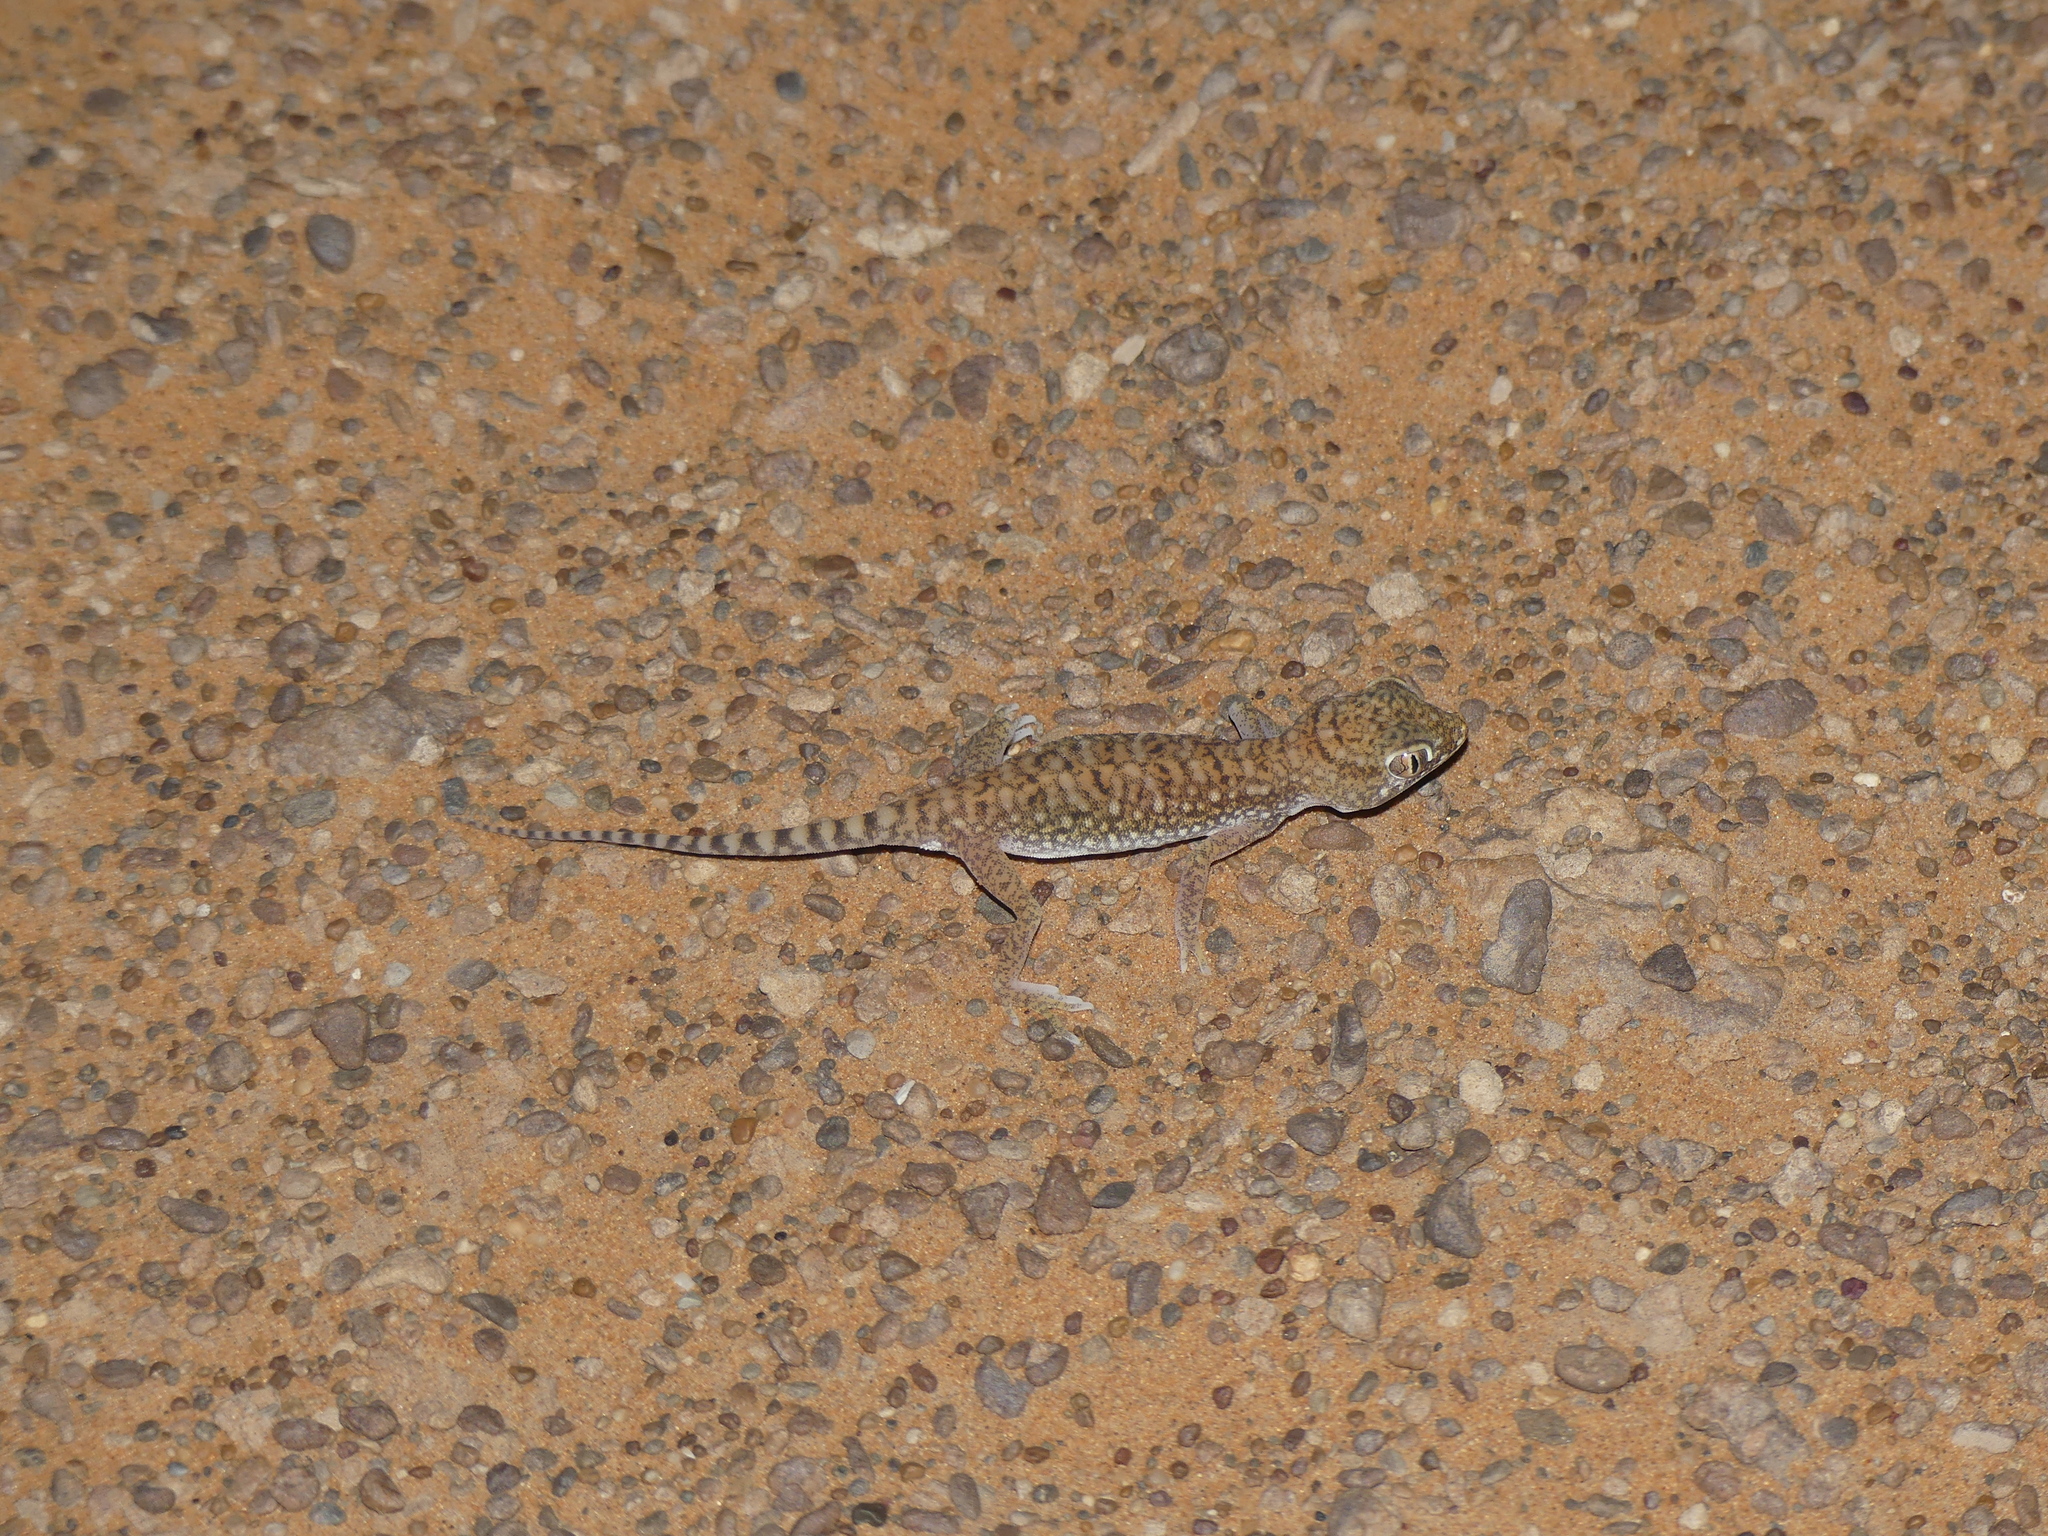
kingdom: Animalia
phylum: Chordata
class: Squamata
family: Gekkonidae
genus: Stenodactylus
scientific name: Stenodactylus petrii
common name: Anderson's short-fingered gecko
